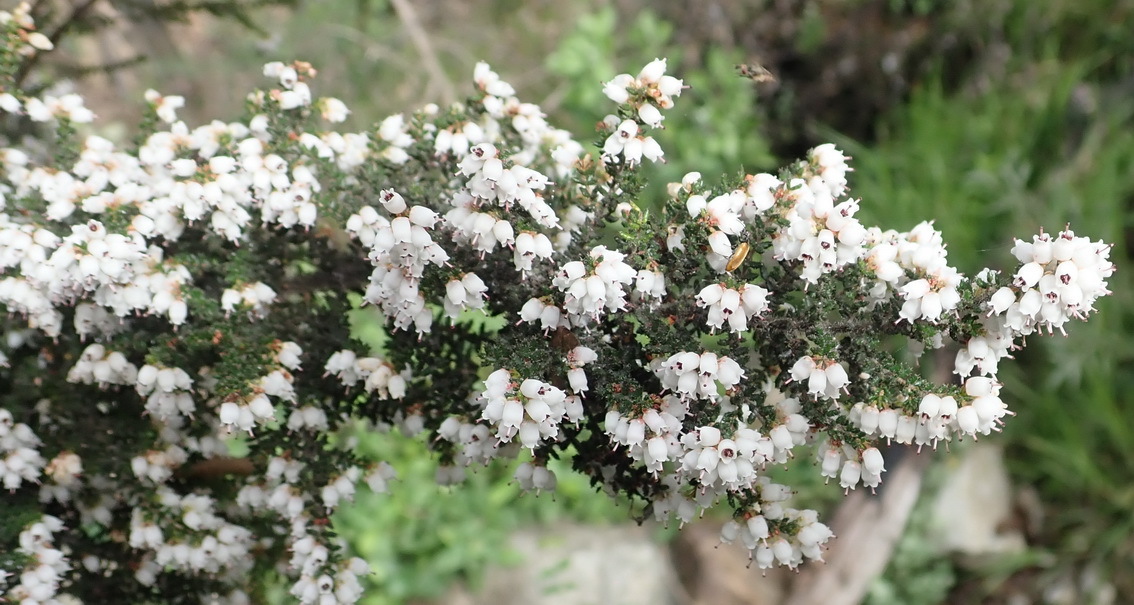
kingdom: Plantae
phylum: Tracheophyta
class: Magnoliopsida
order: Ericales
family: Ericaceae
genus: Erica
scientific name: Erica scabriuscula
